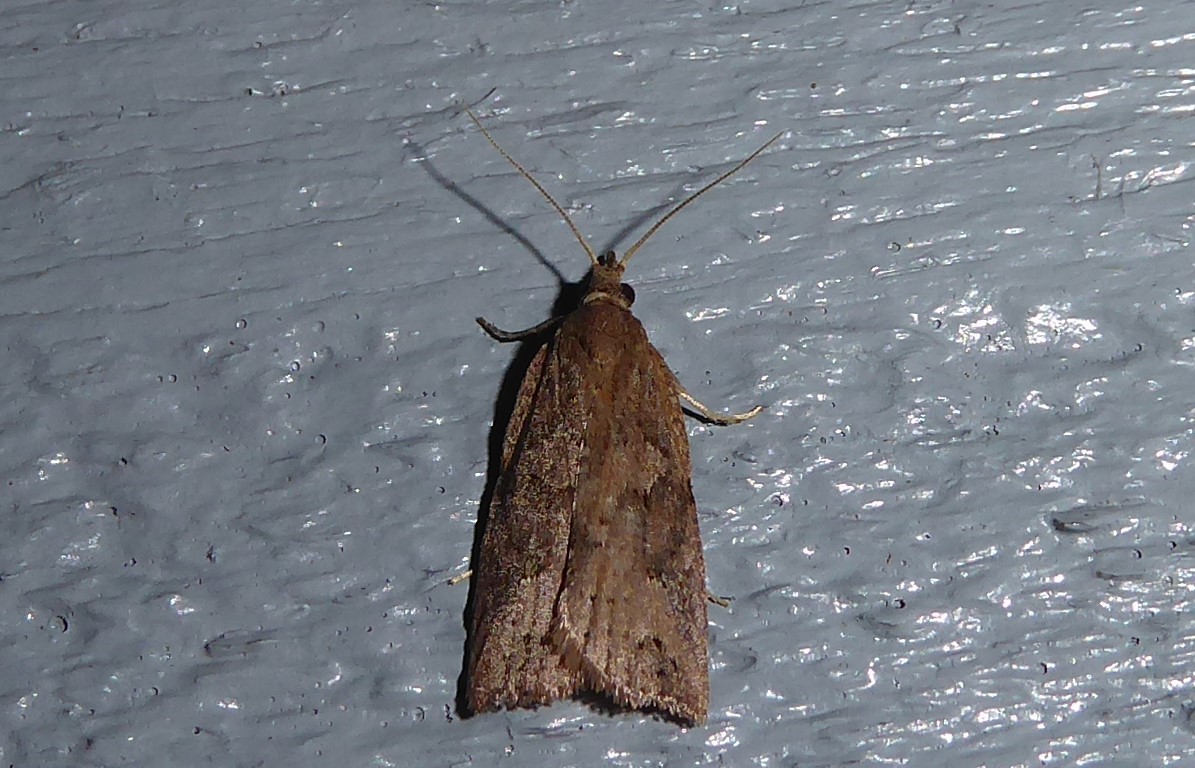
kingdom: Animalia
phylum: Arthropoda
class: Insecta
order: Lepidoptera
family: Tortricidae
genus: Planotortrix
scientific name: Planotortrix notophaea
